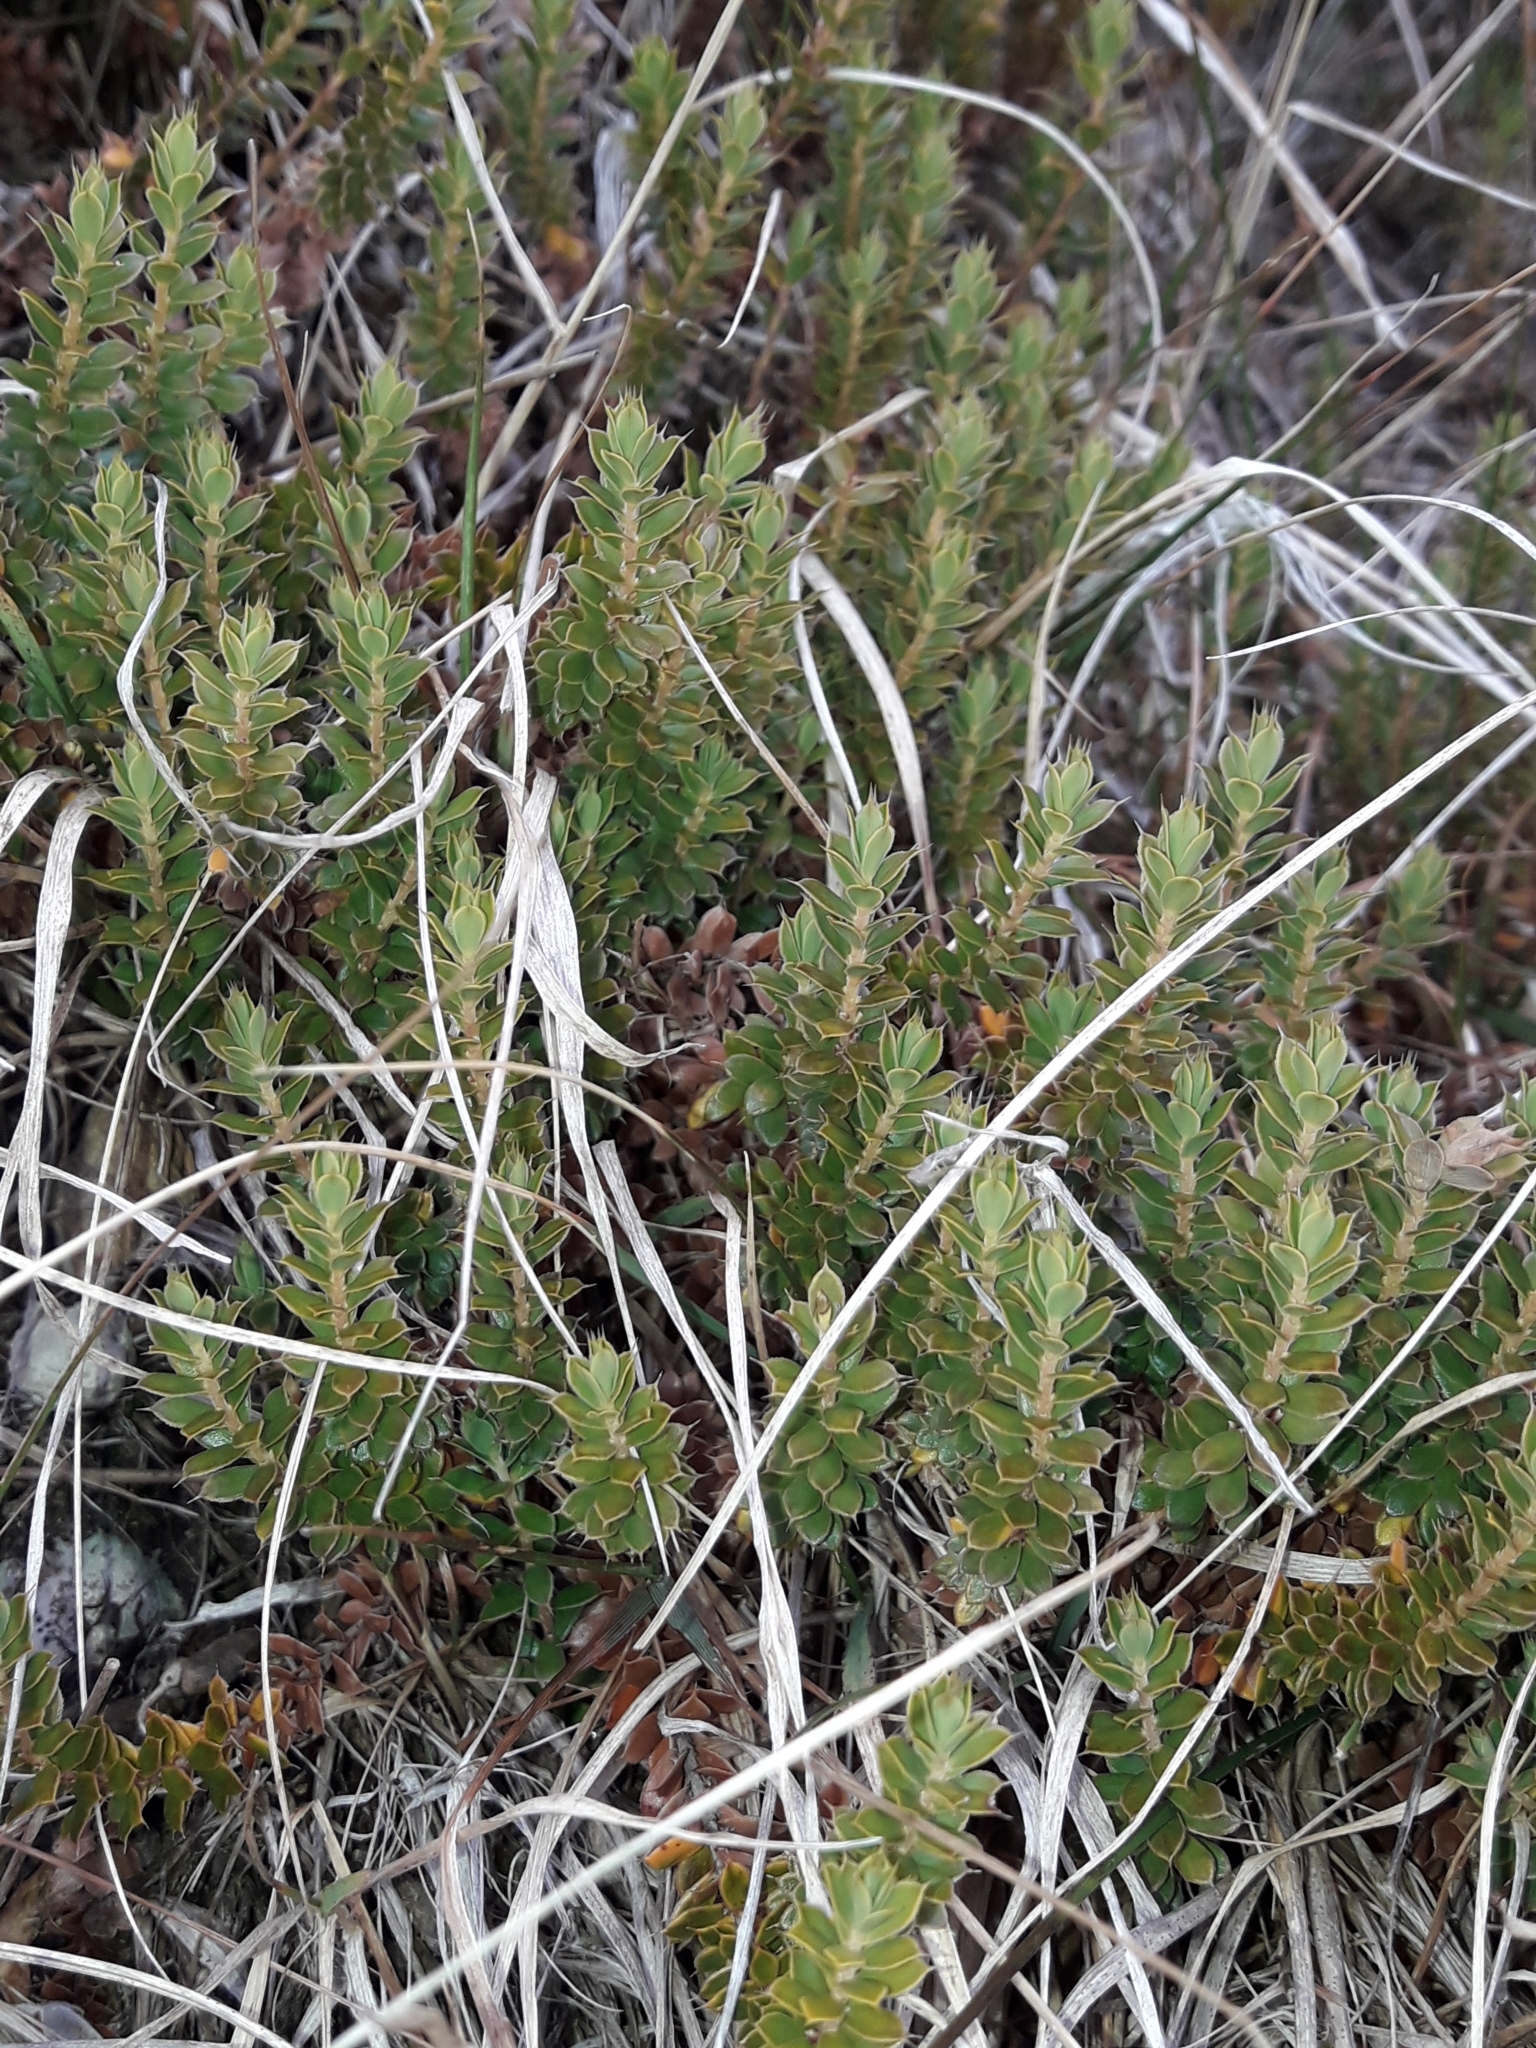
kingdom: Plantae
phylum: Tracheophyta
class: Magnoliopsida
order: Ericales
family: Ericaceae
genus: Styphelia
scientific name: Styphelia nesophila
